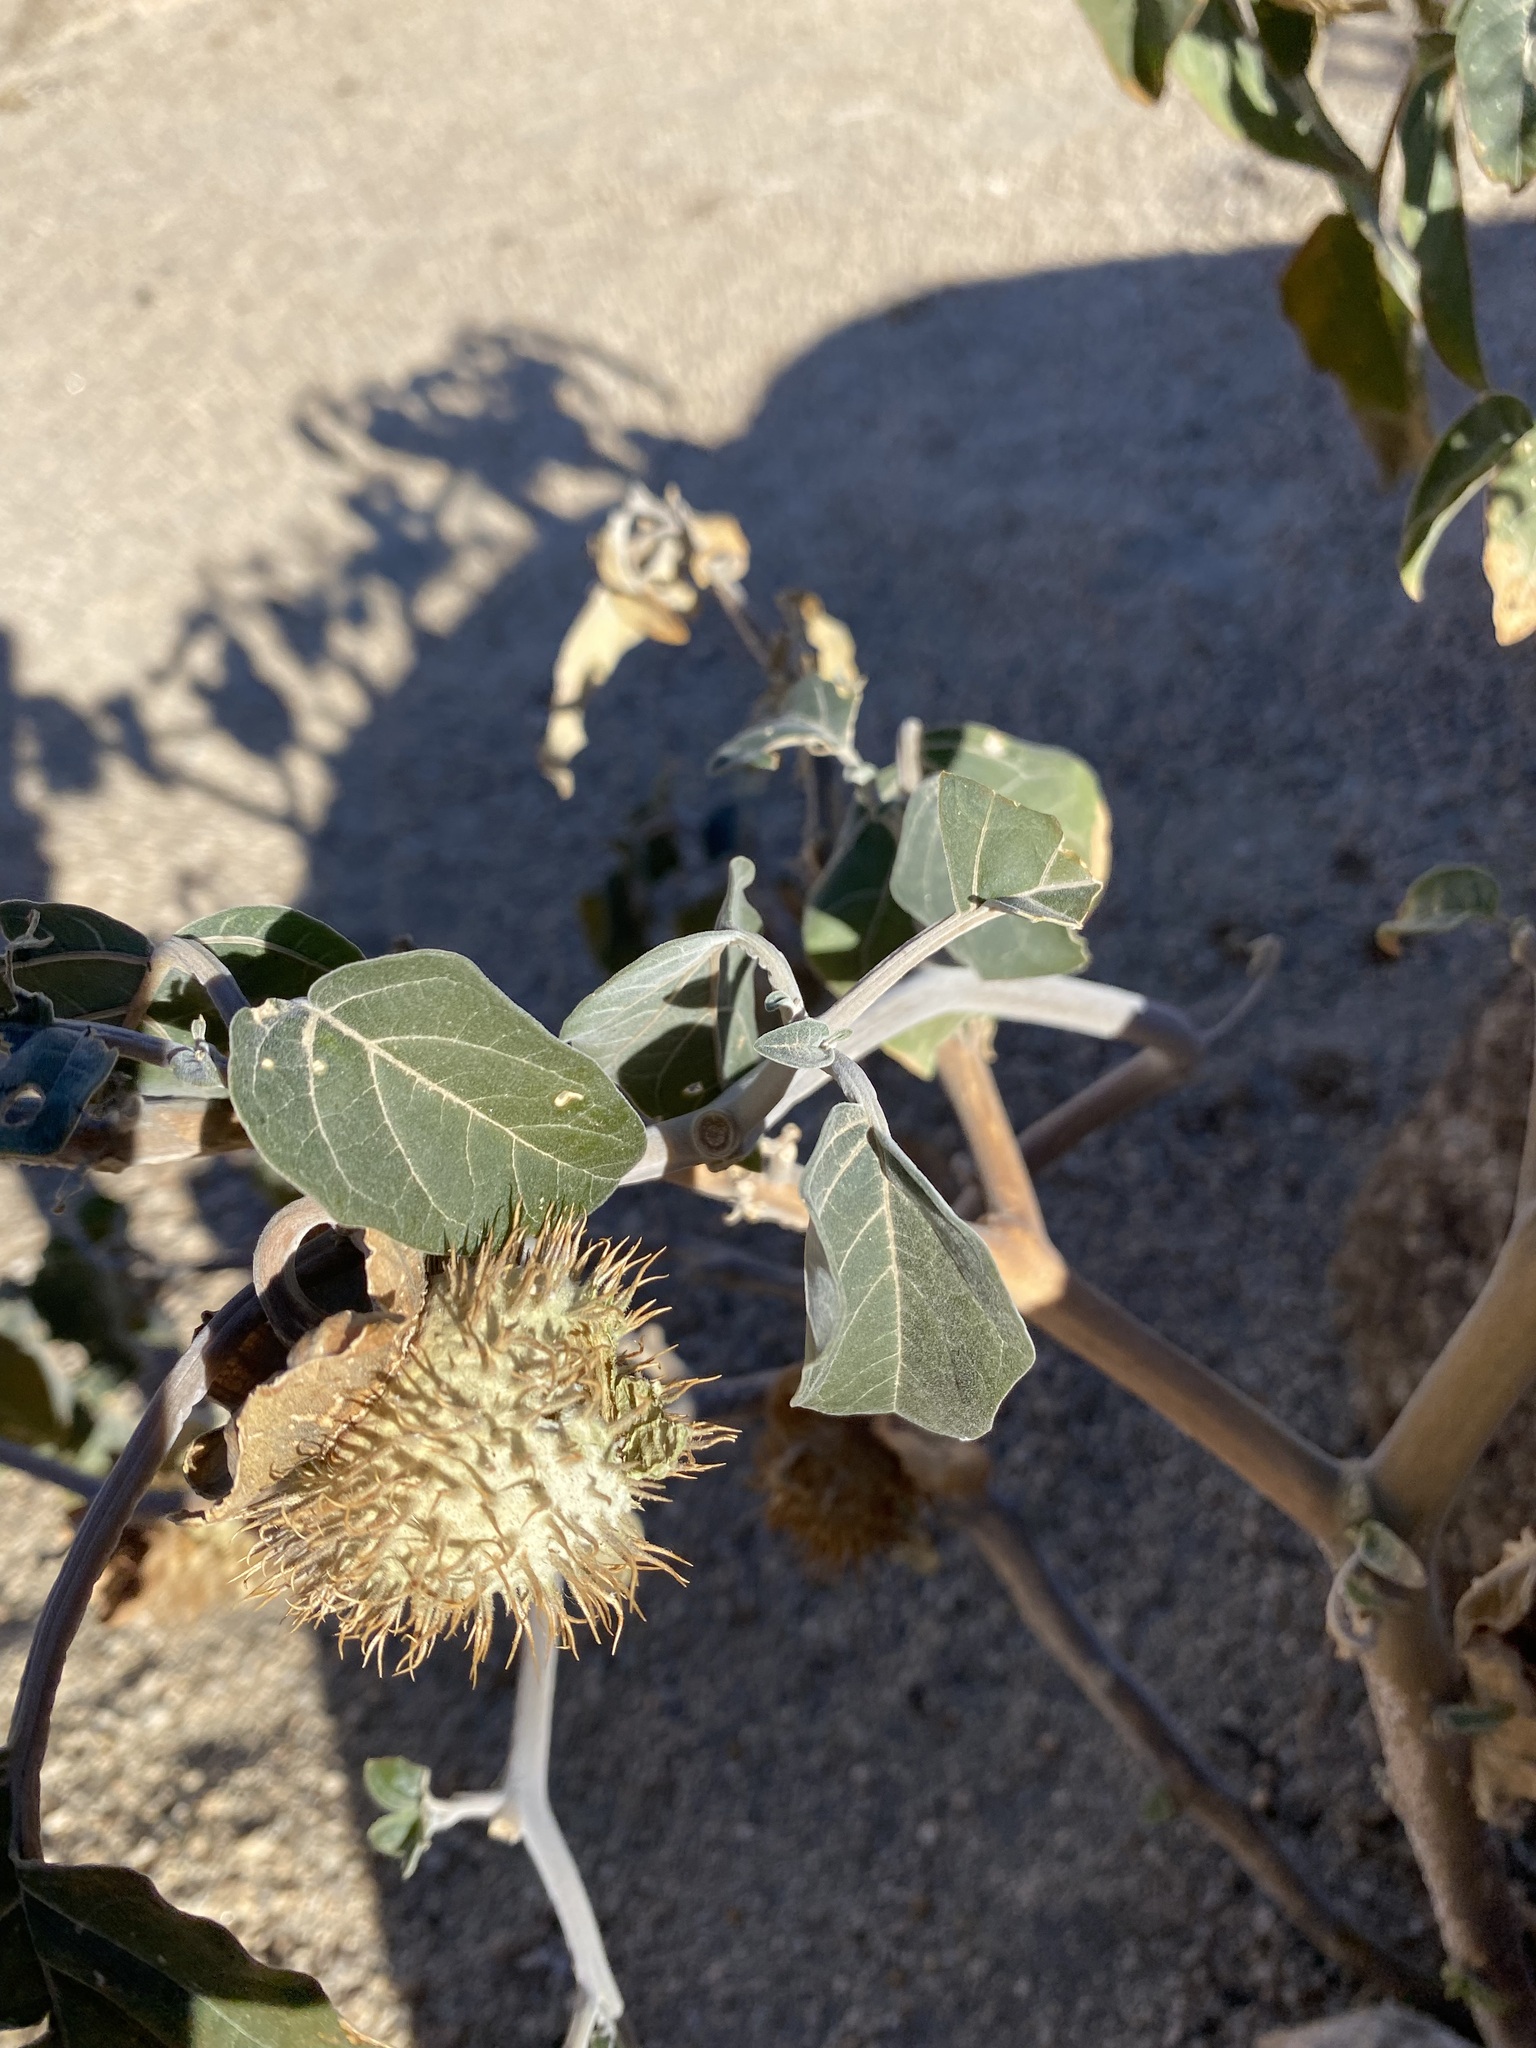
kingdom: Plantae
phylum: Tracheophyta
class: Magnoliopsida
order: Solanales
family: Solanaceae
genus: Datura
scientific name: Datura wrightii
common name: Sacred thorn-apple
